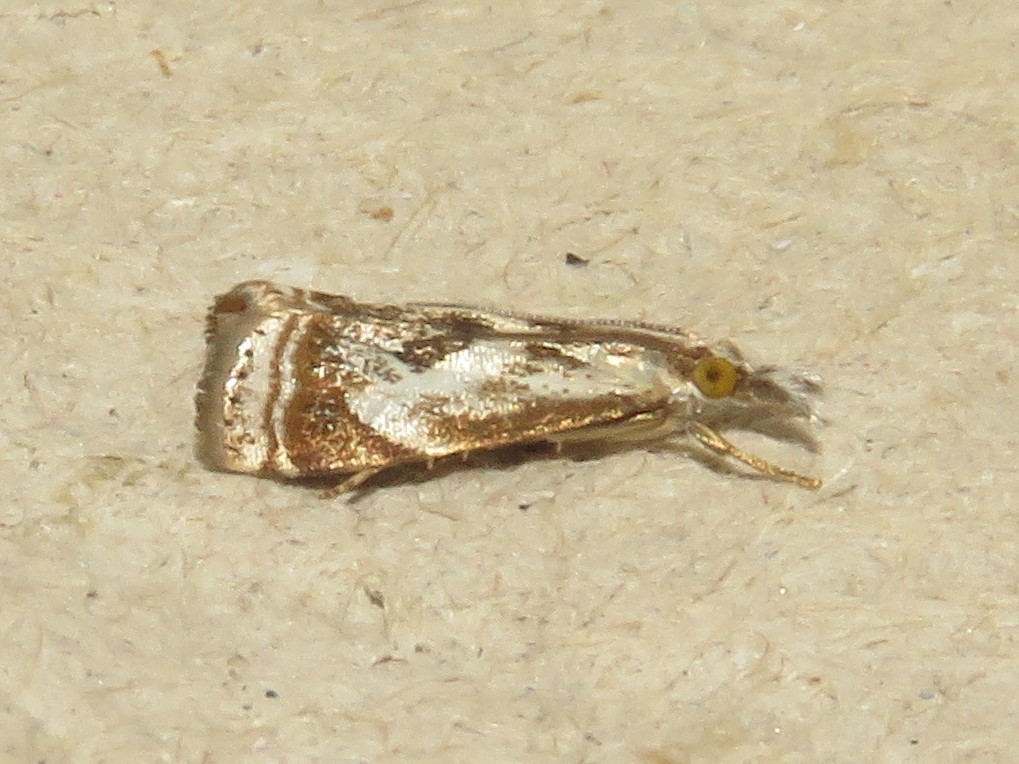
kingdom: Animalia
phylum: Arthropoda
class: Insecta
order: Lepidoptera
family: Crambidae
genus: Microcrambus
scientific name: Microcrambus elegans
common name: Elegant grass-veneer
